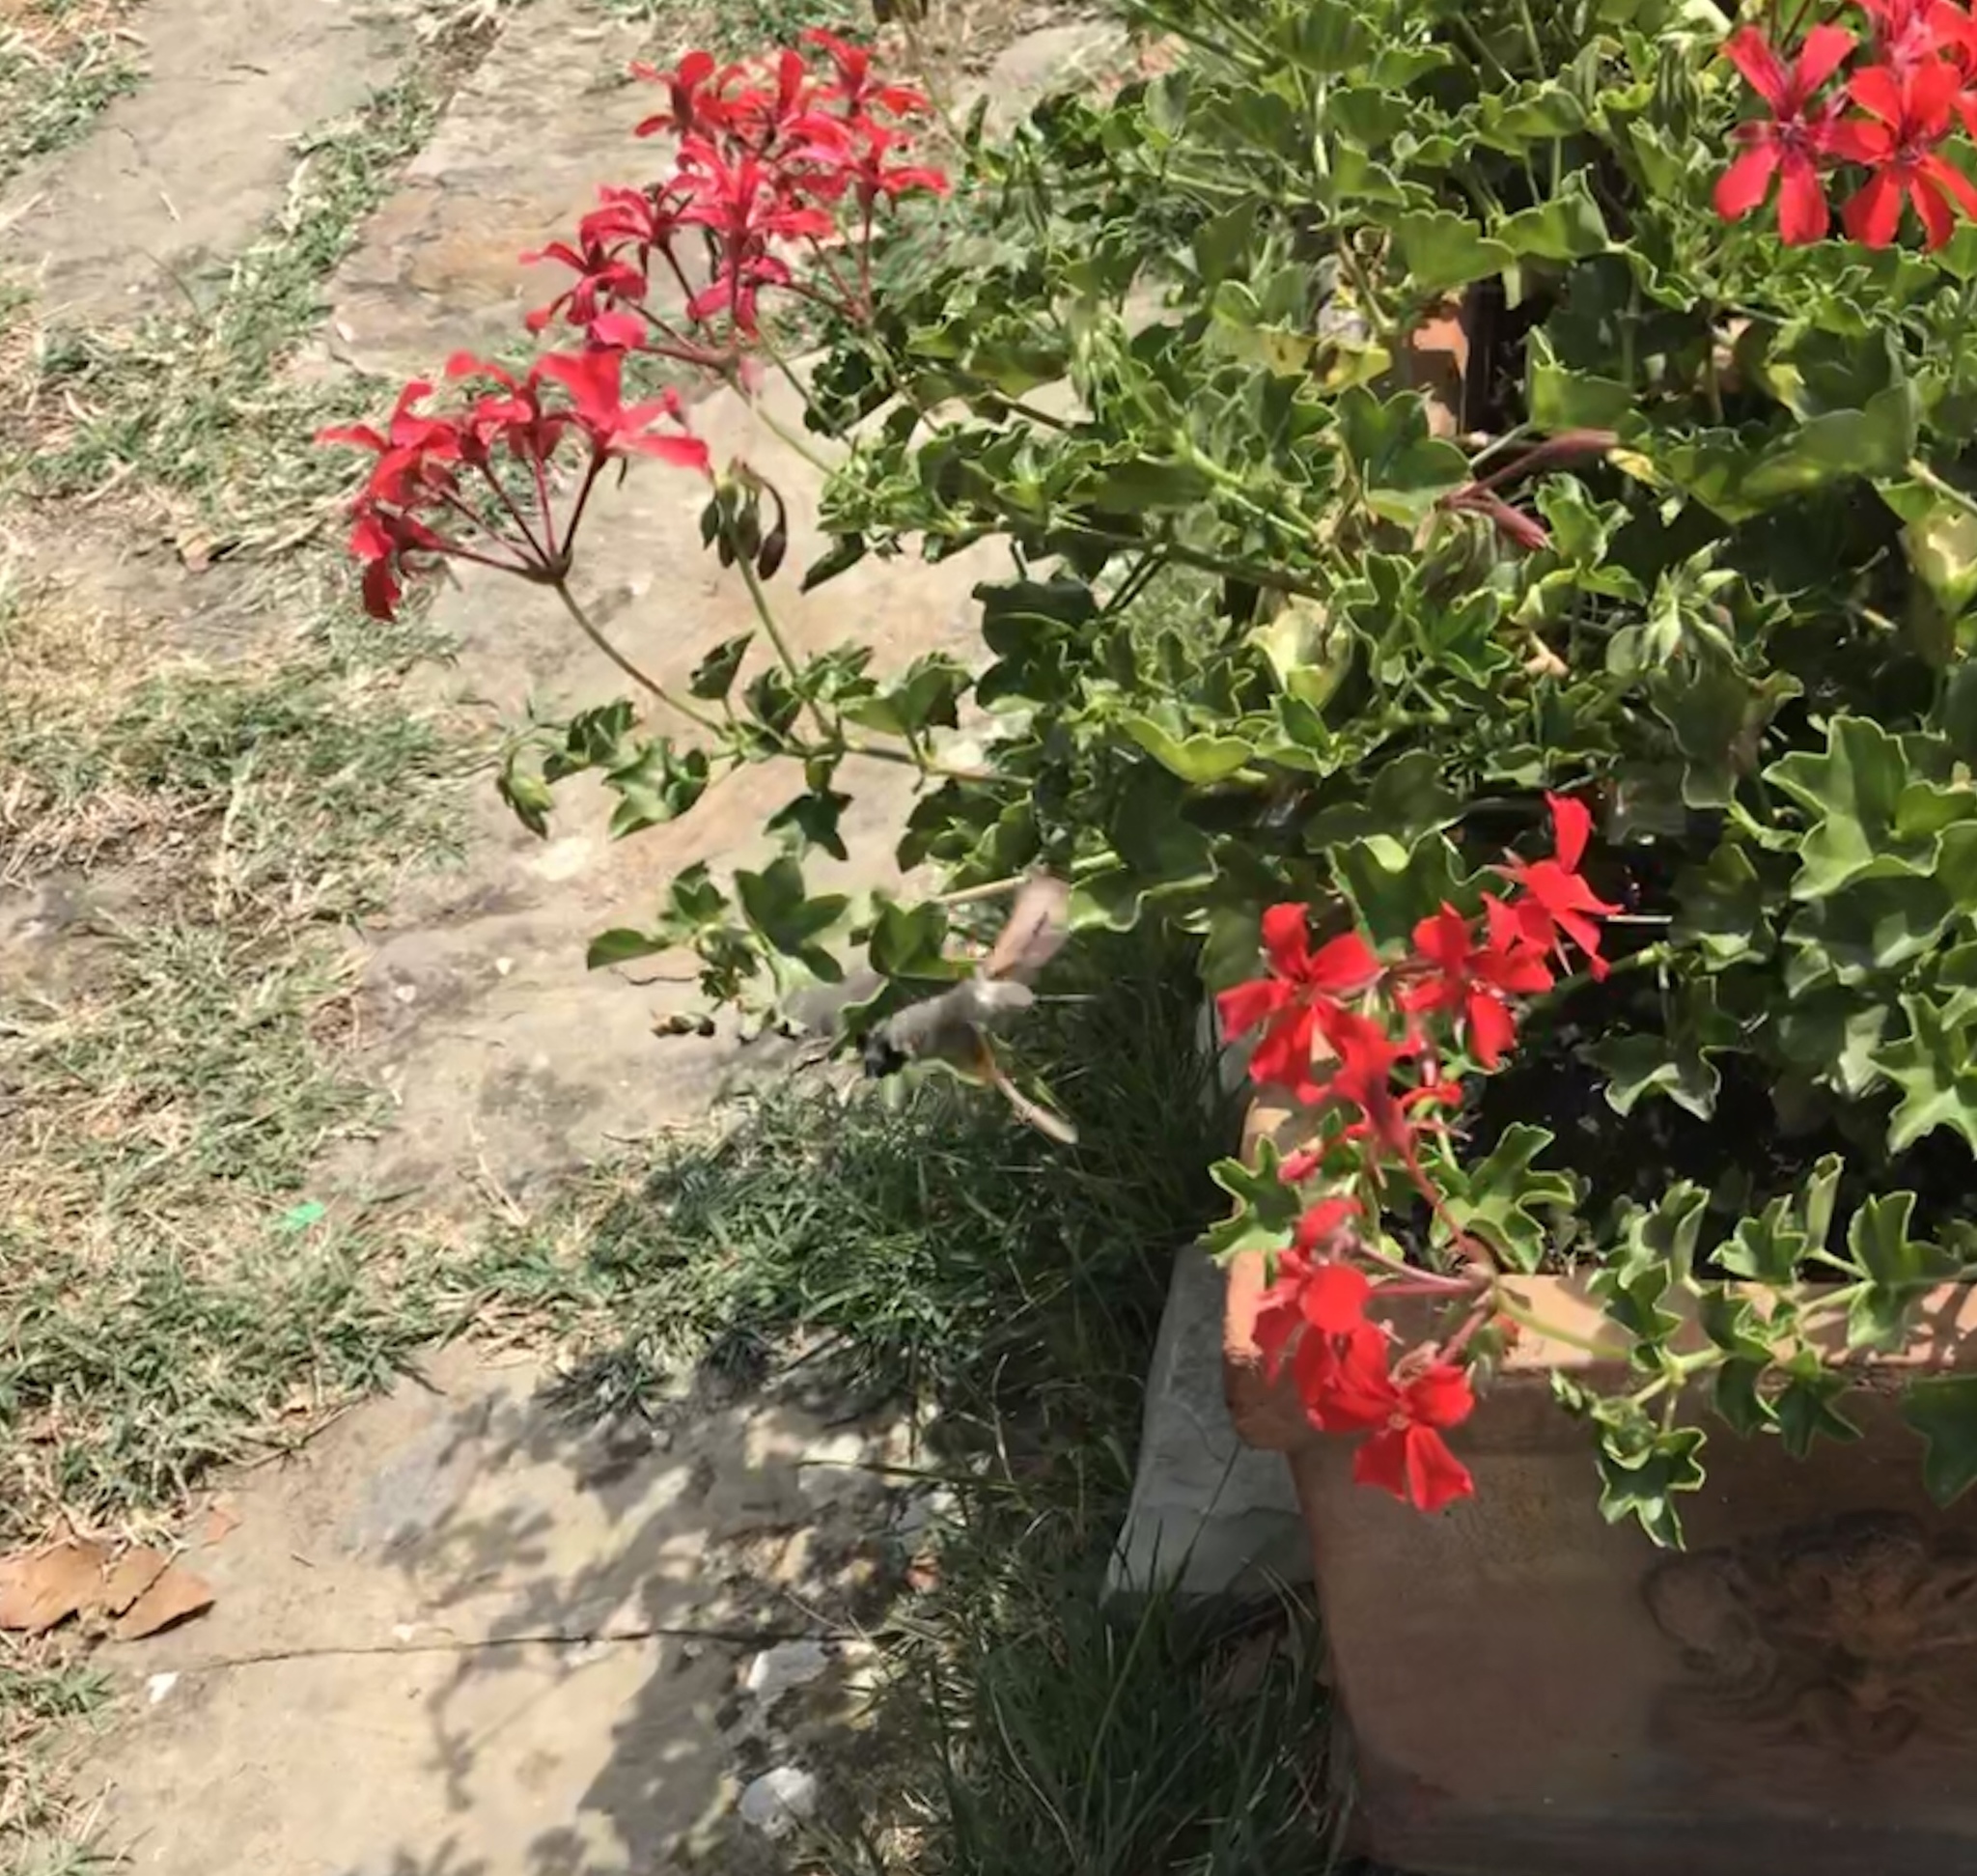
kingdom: Animalia
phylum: Arthropoda
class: Insecta
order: Lepidoptera
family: Sphingidae
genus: Macroglossum
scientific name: Macroglossum stellatarum
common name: Humming-bird hawk-moth
